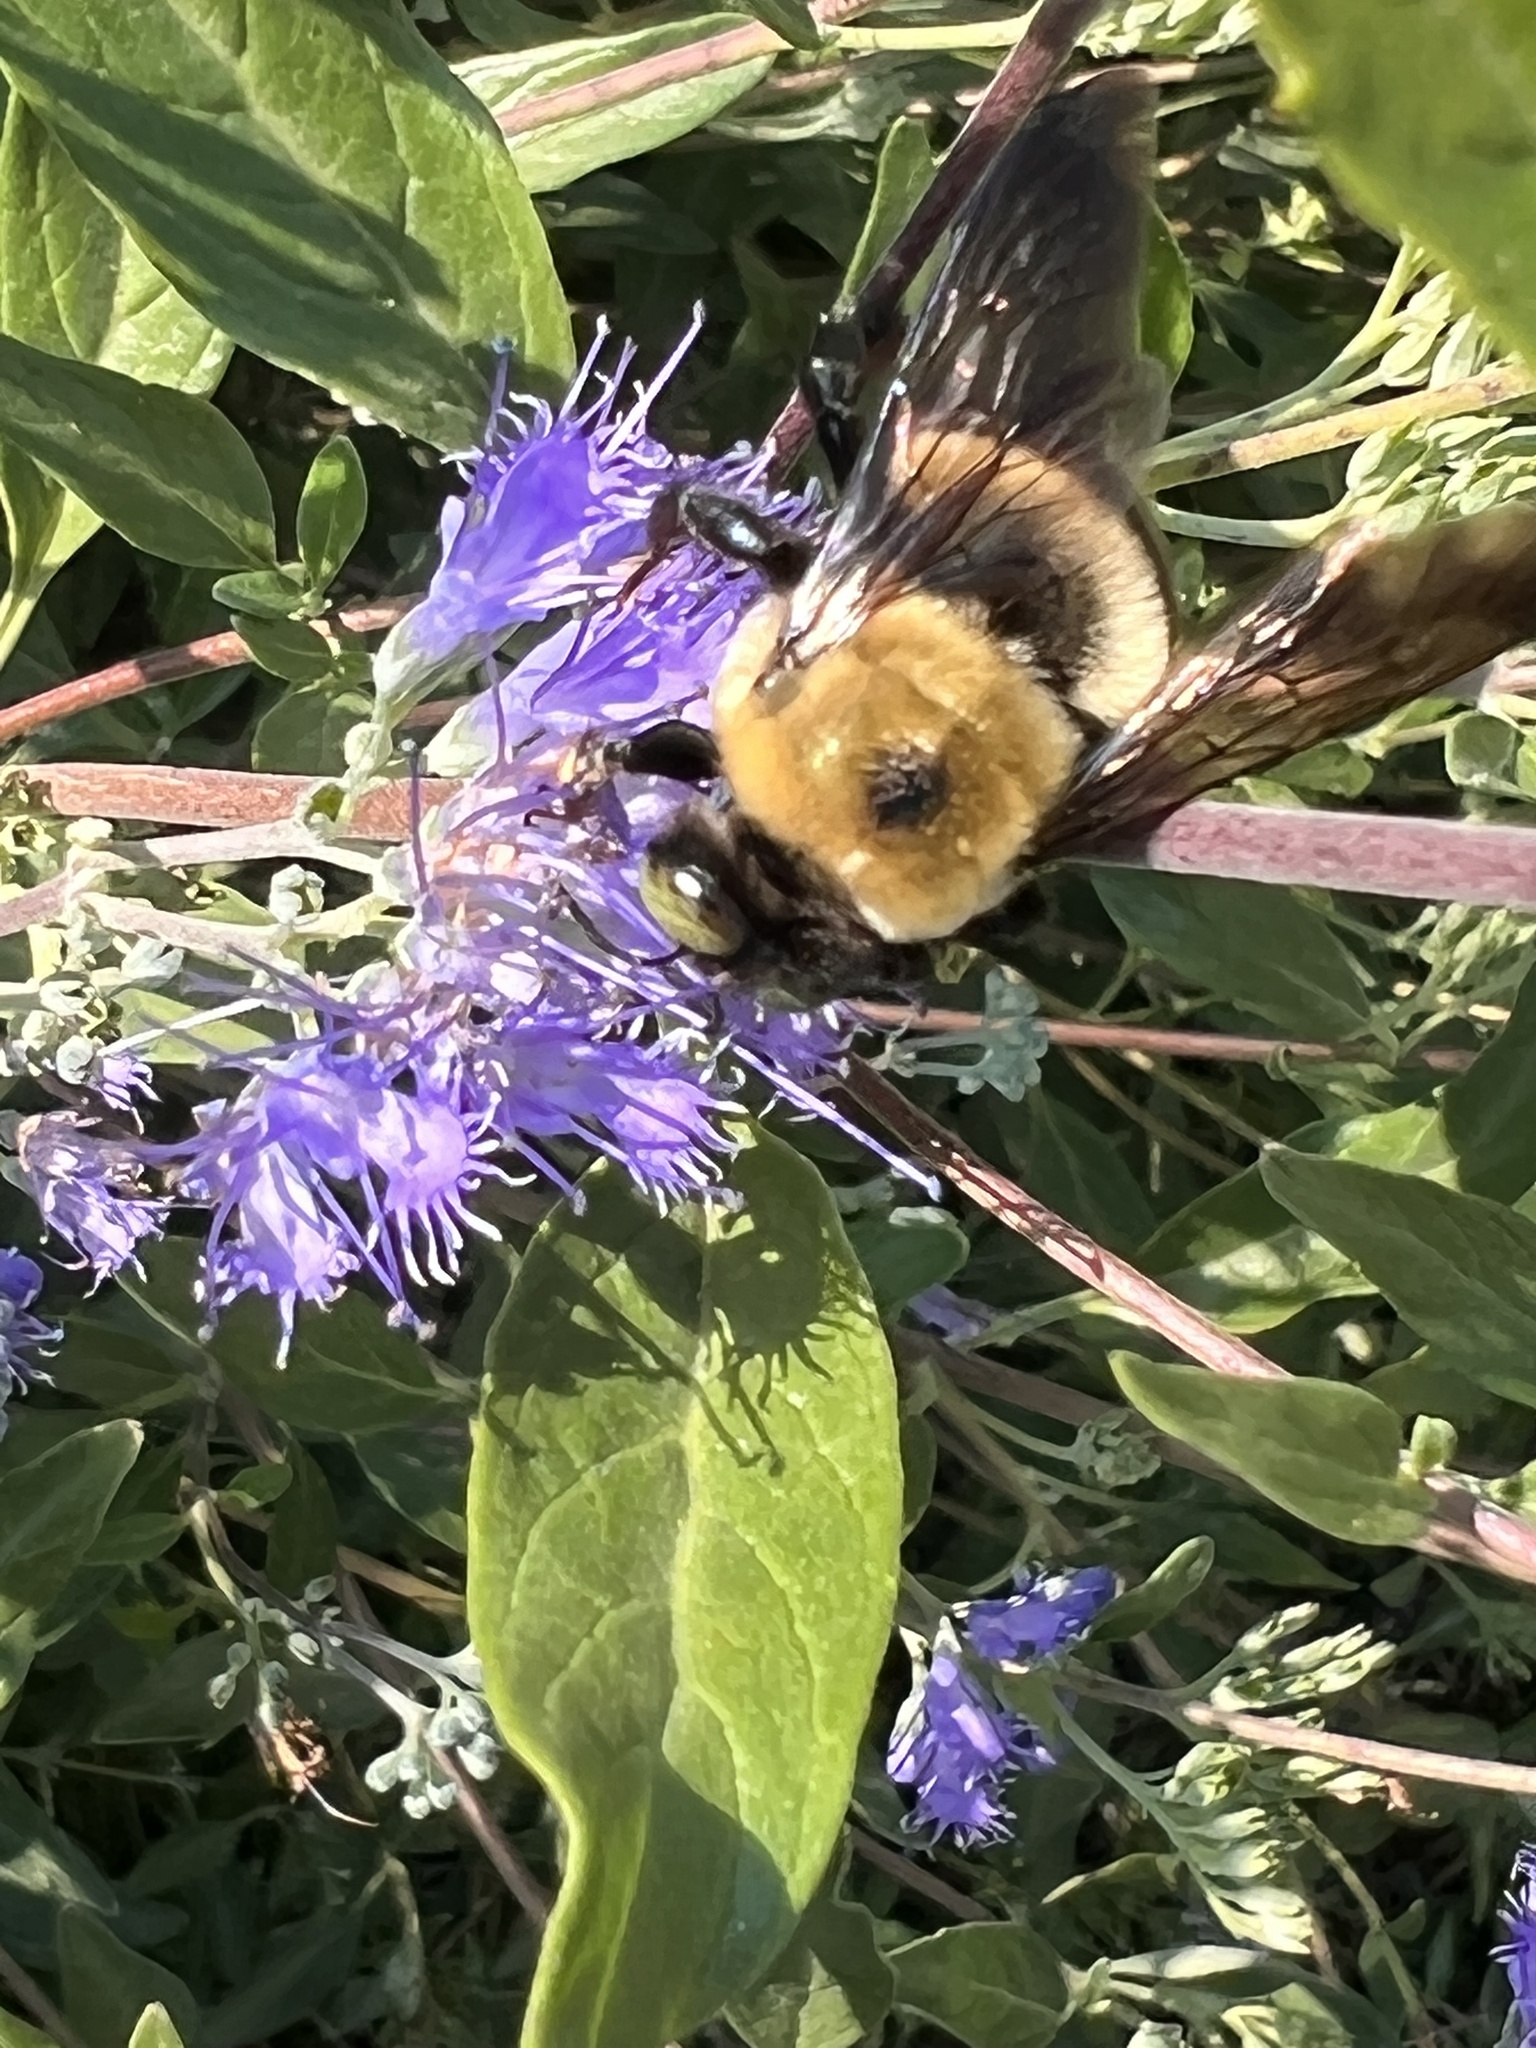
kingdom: Animalia
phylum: Arthropoda
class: Insecta
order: Hymenoptera
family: Apidae
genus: Xylocopa
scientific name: Xylocopa virginica
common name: Carpenter bee
